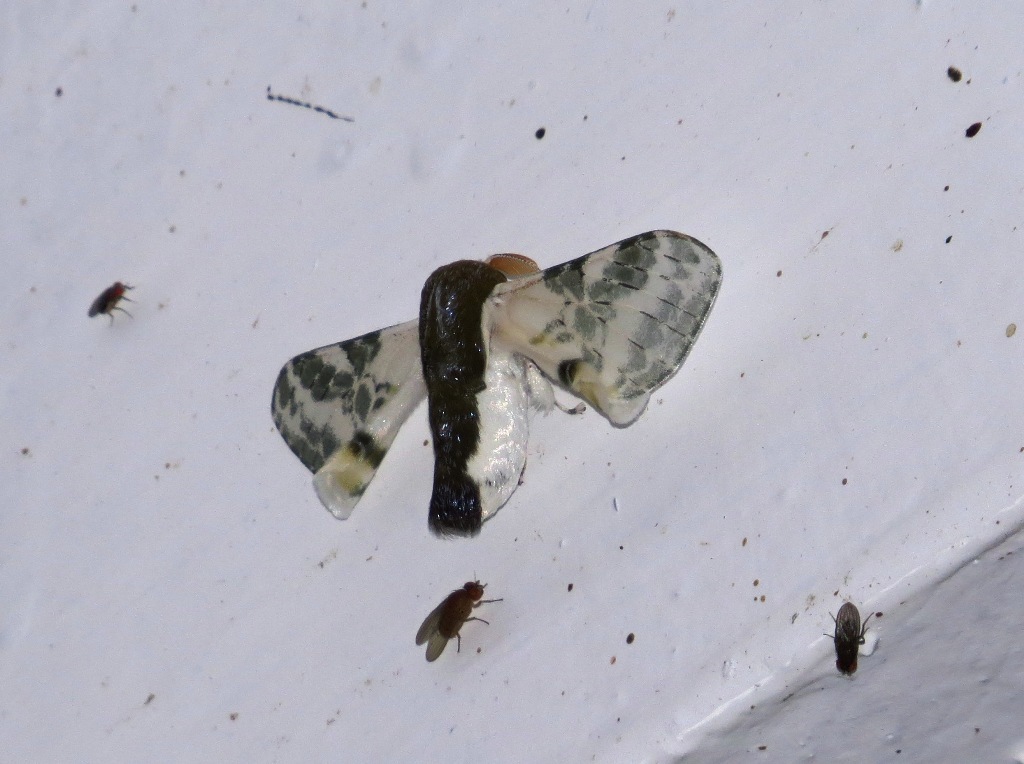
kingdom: Animalia
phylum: Arthropoda
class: Insecta
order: Lepidoptera
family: Bombycidae
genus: Colla
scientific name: Colla netrix
